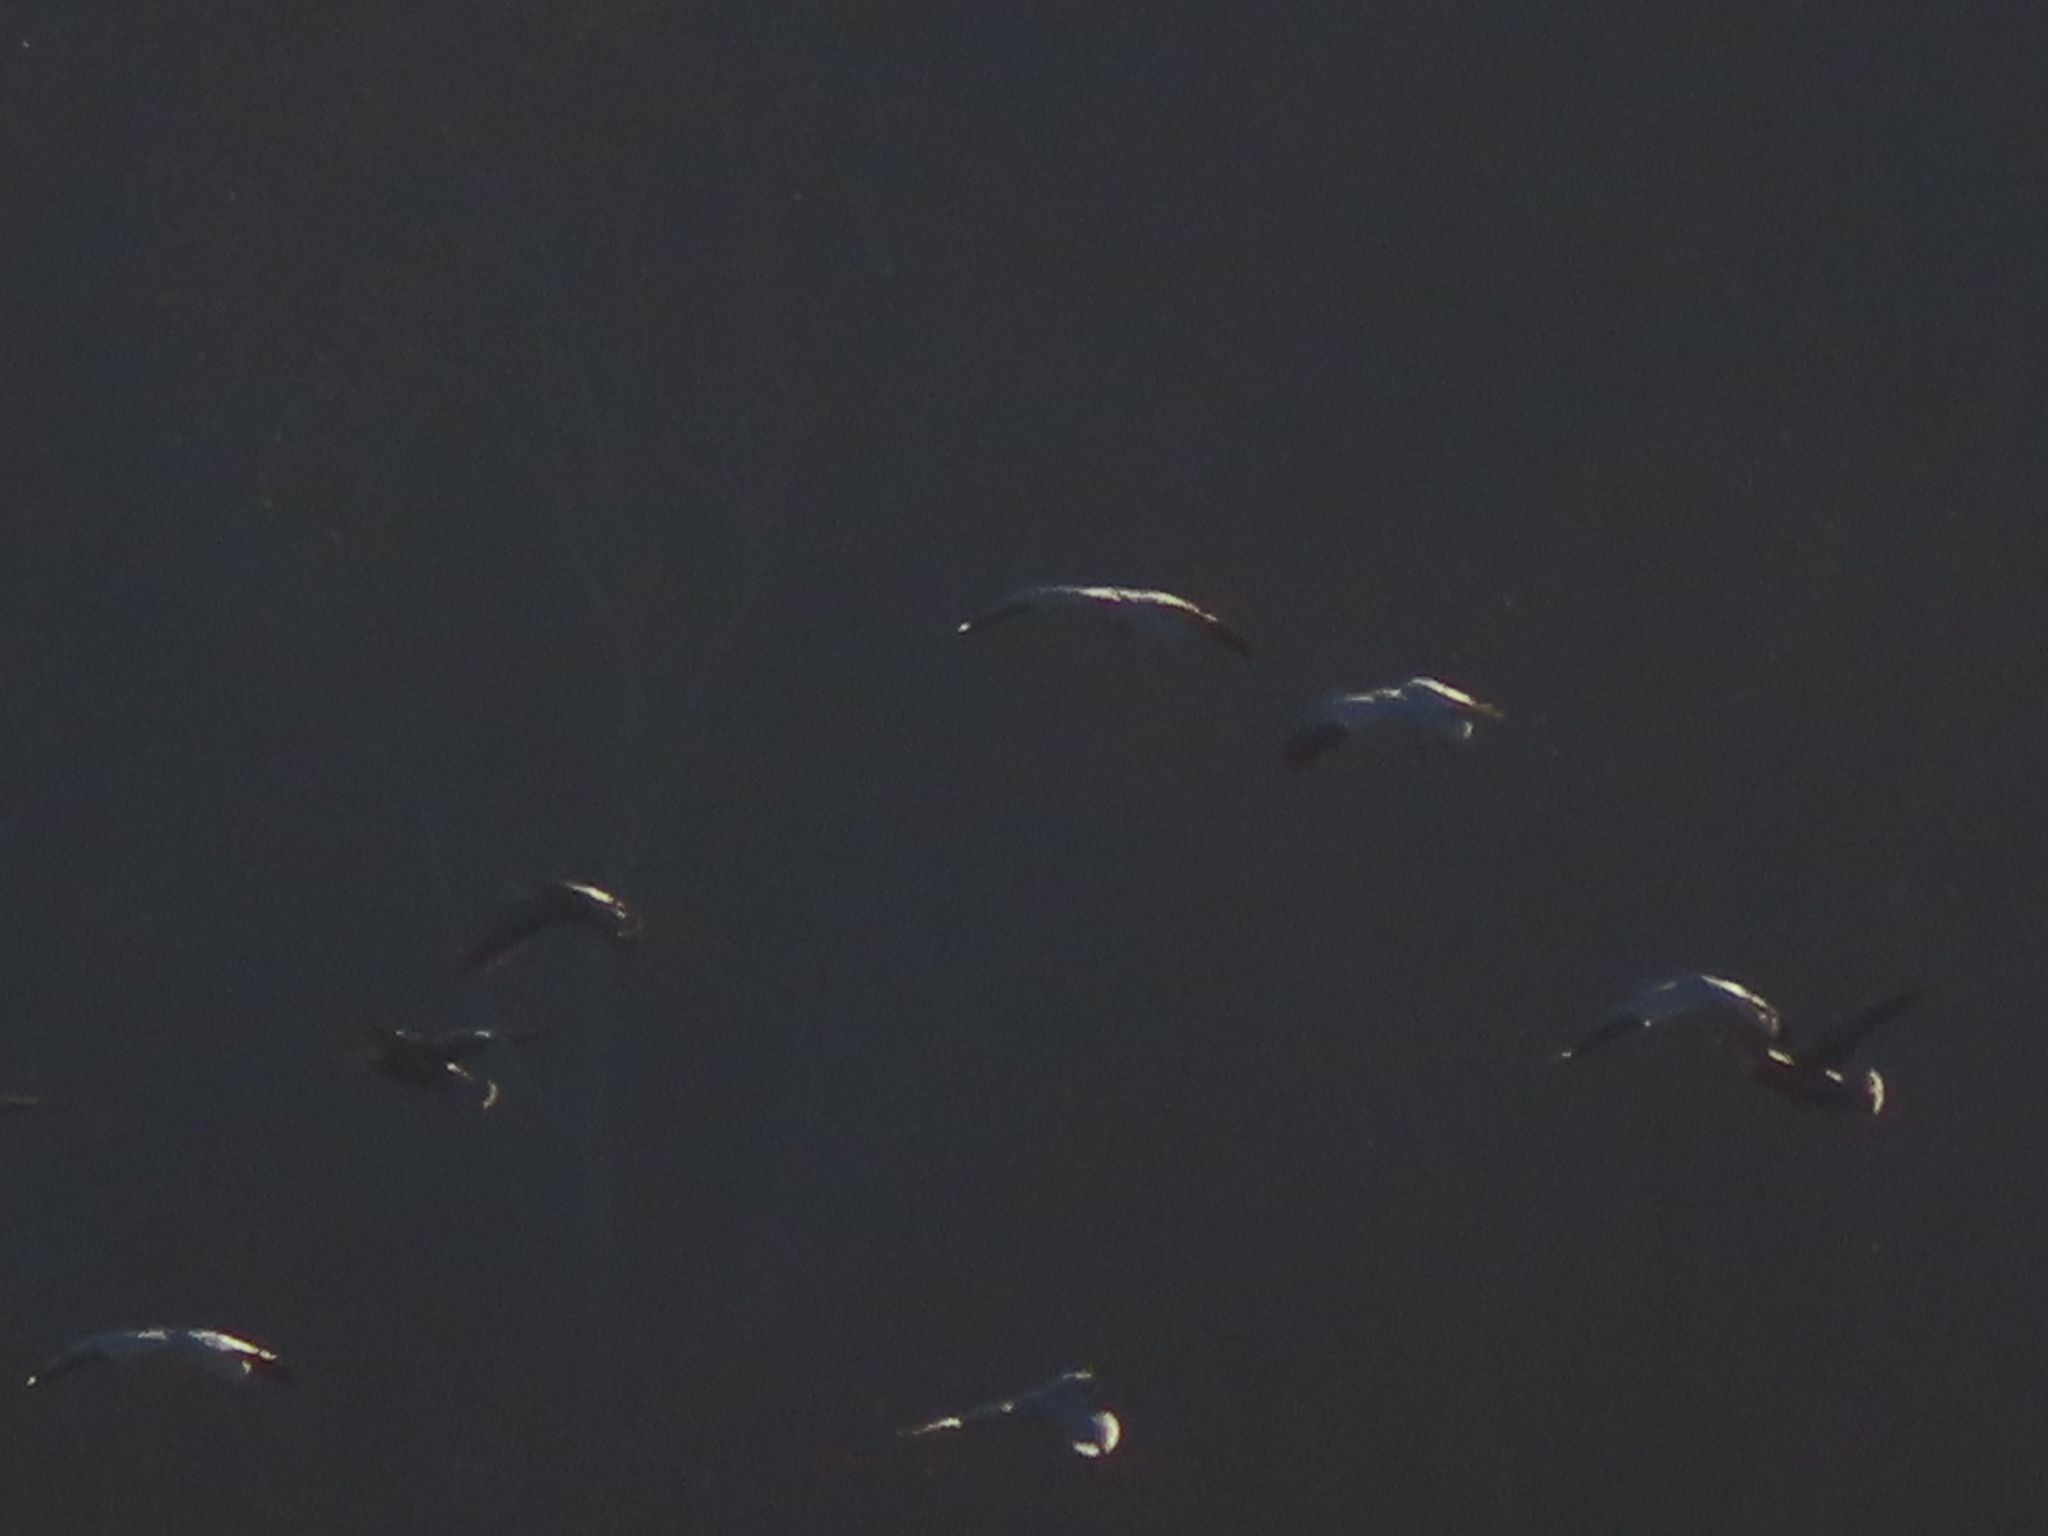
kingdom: Animalia
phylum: Chordata
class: Aves
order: Anseriformes
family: Anatidae
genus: Anser
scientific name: Anser caerulescens
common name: Snow goose
